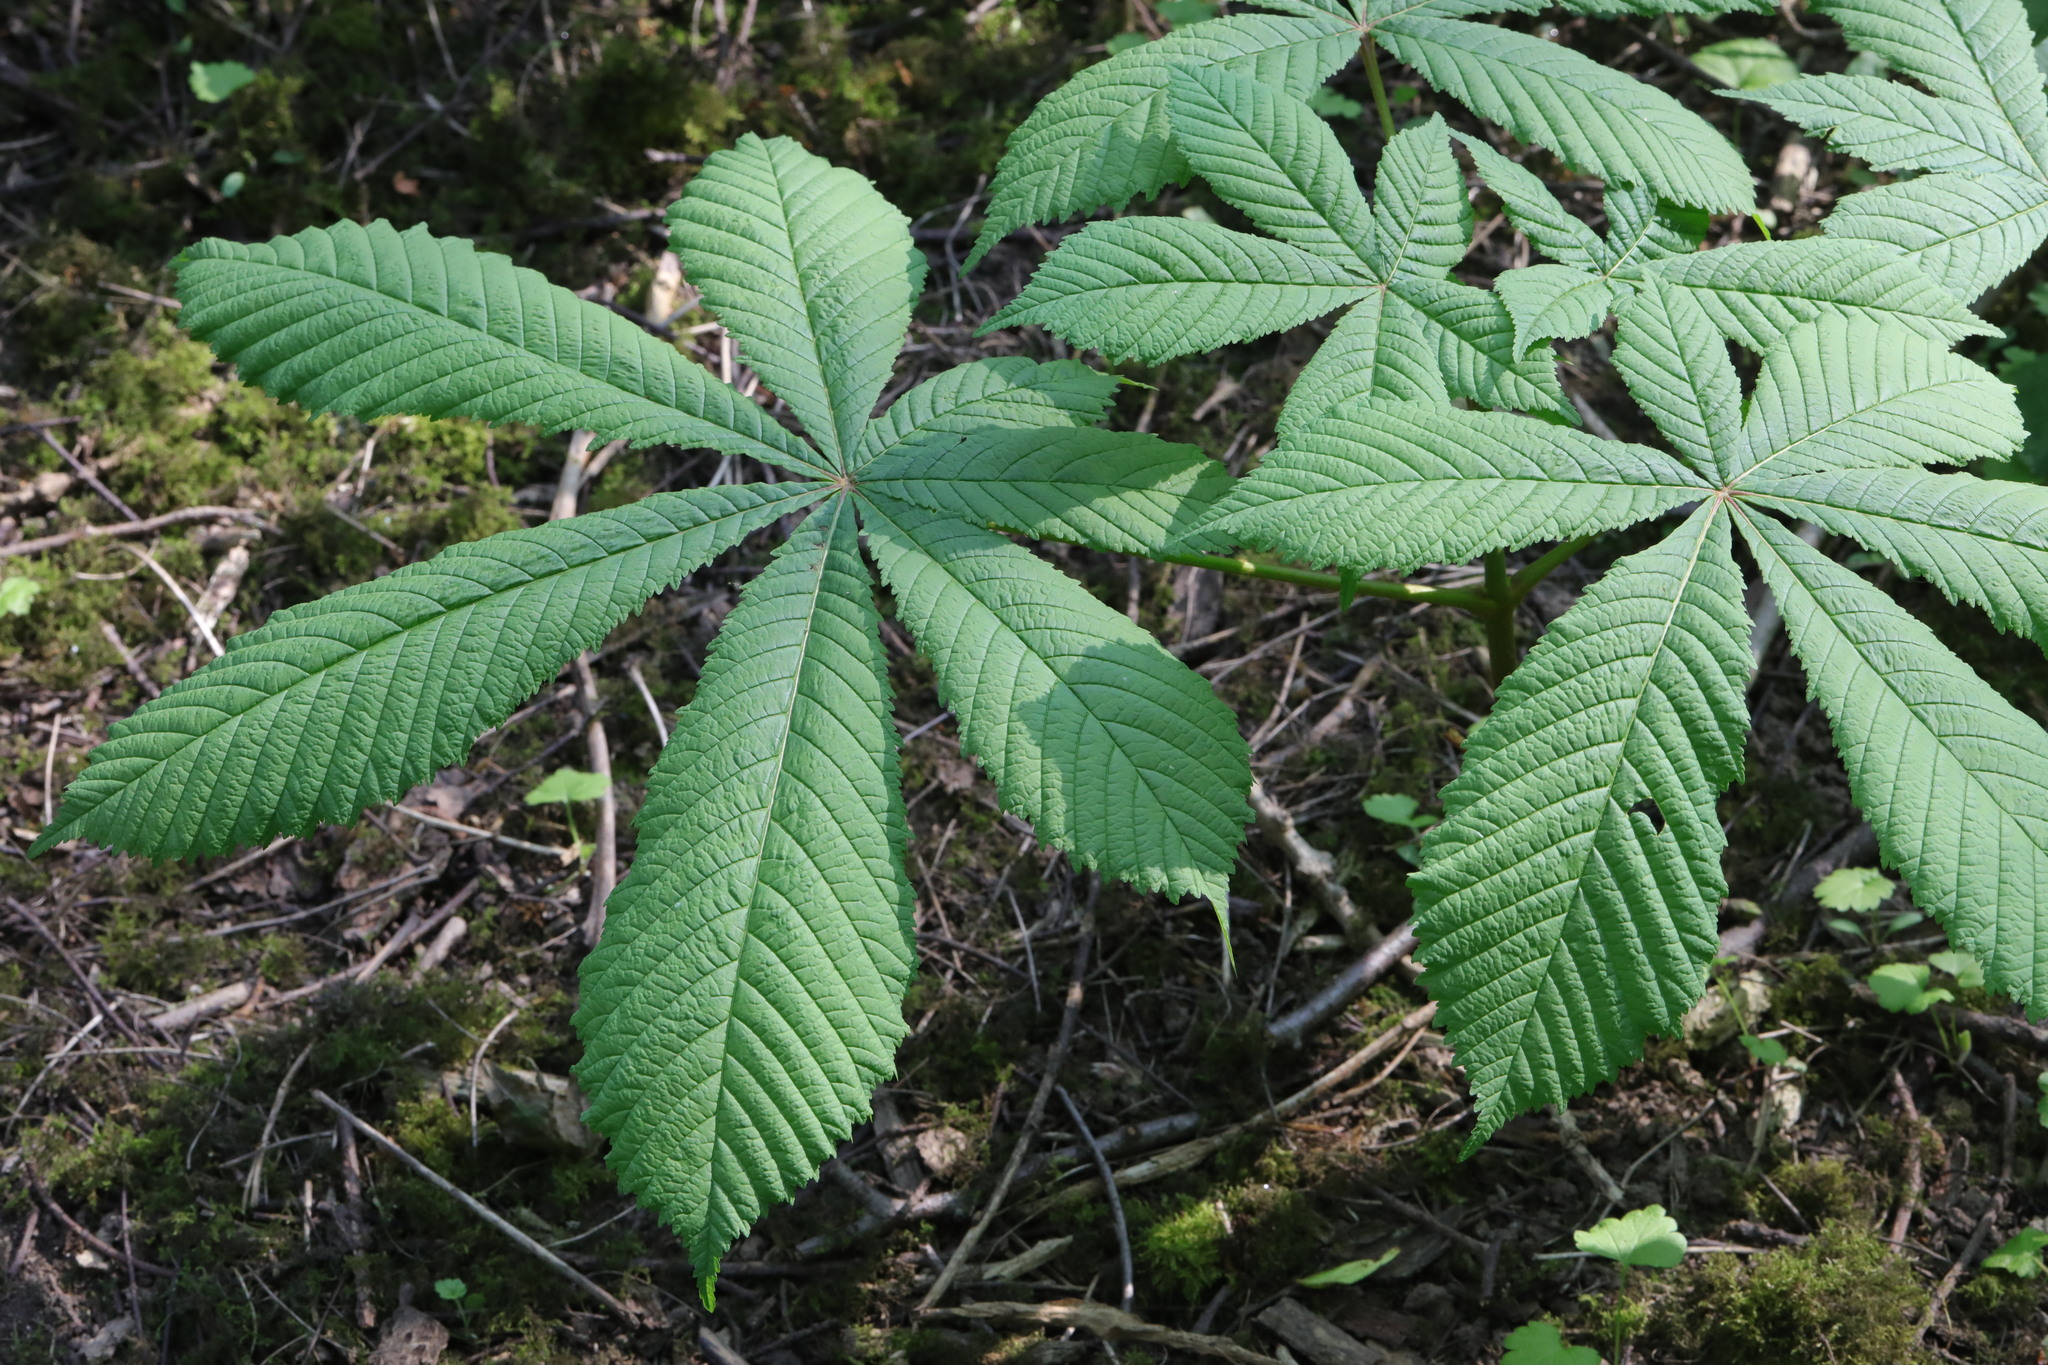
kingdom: Plantae
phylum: Tracheophyta
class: Magnoliopsida
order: Sapindales
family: Sapindaceae
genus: Aesculus
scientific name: Aesculus hippocastanum
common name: Horse-chestnut
